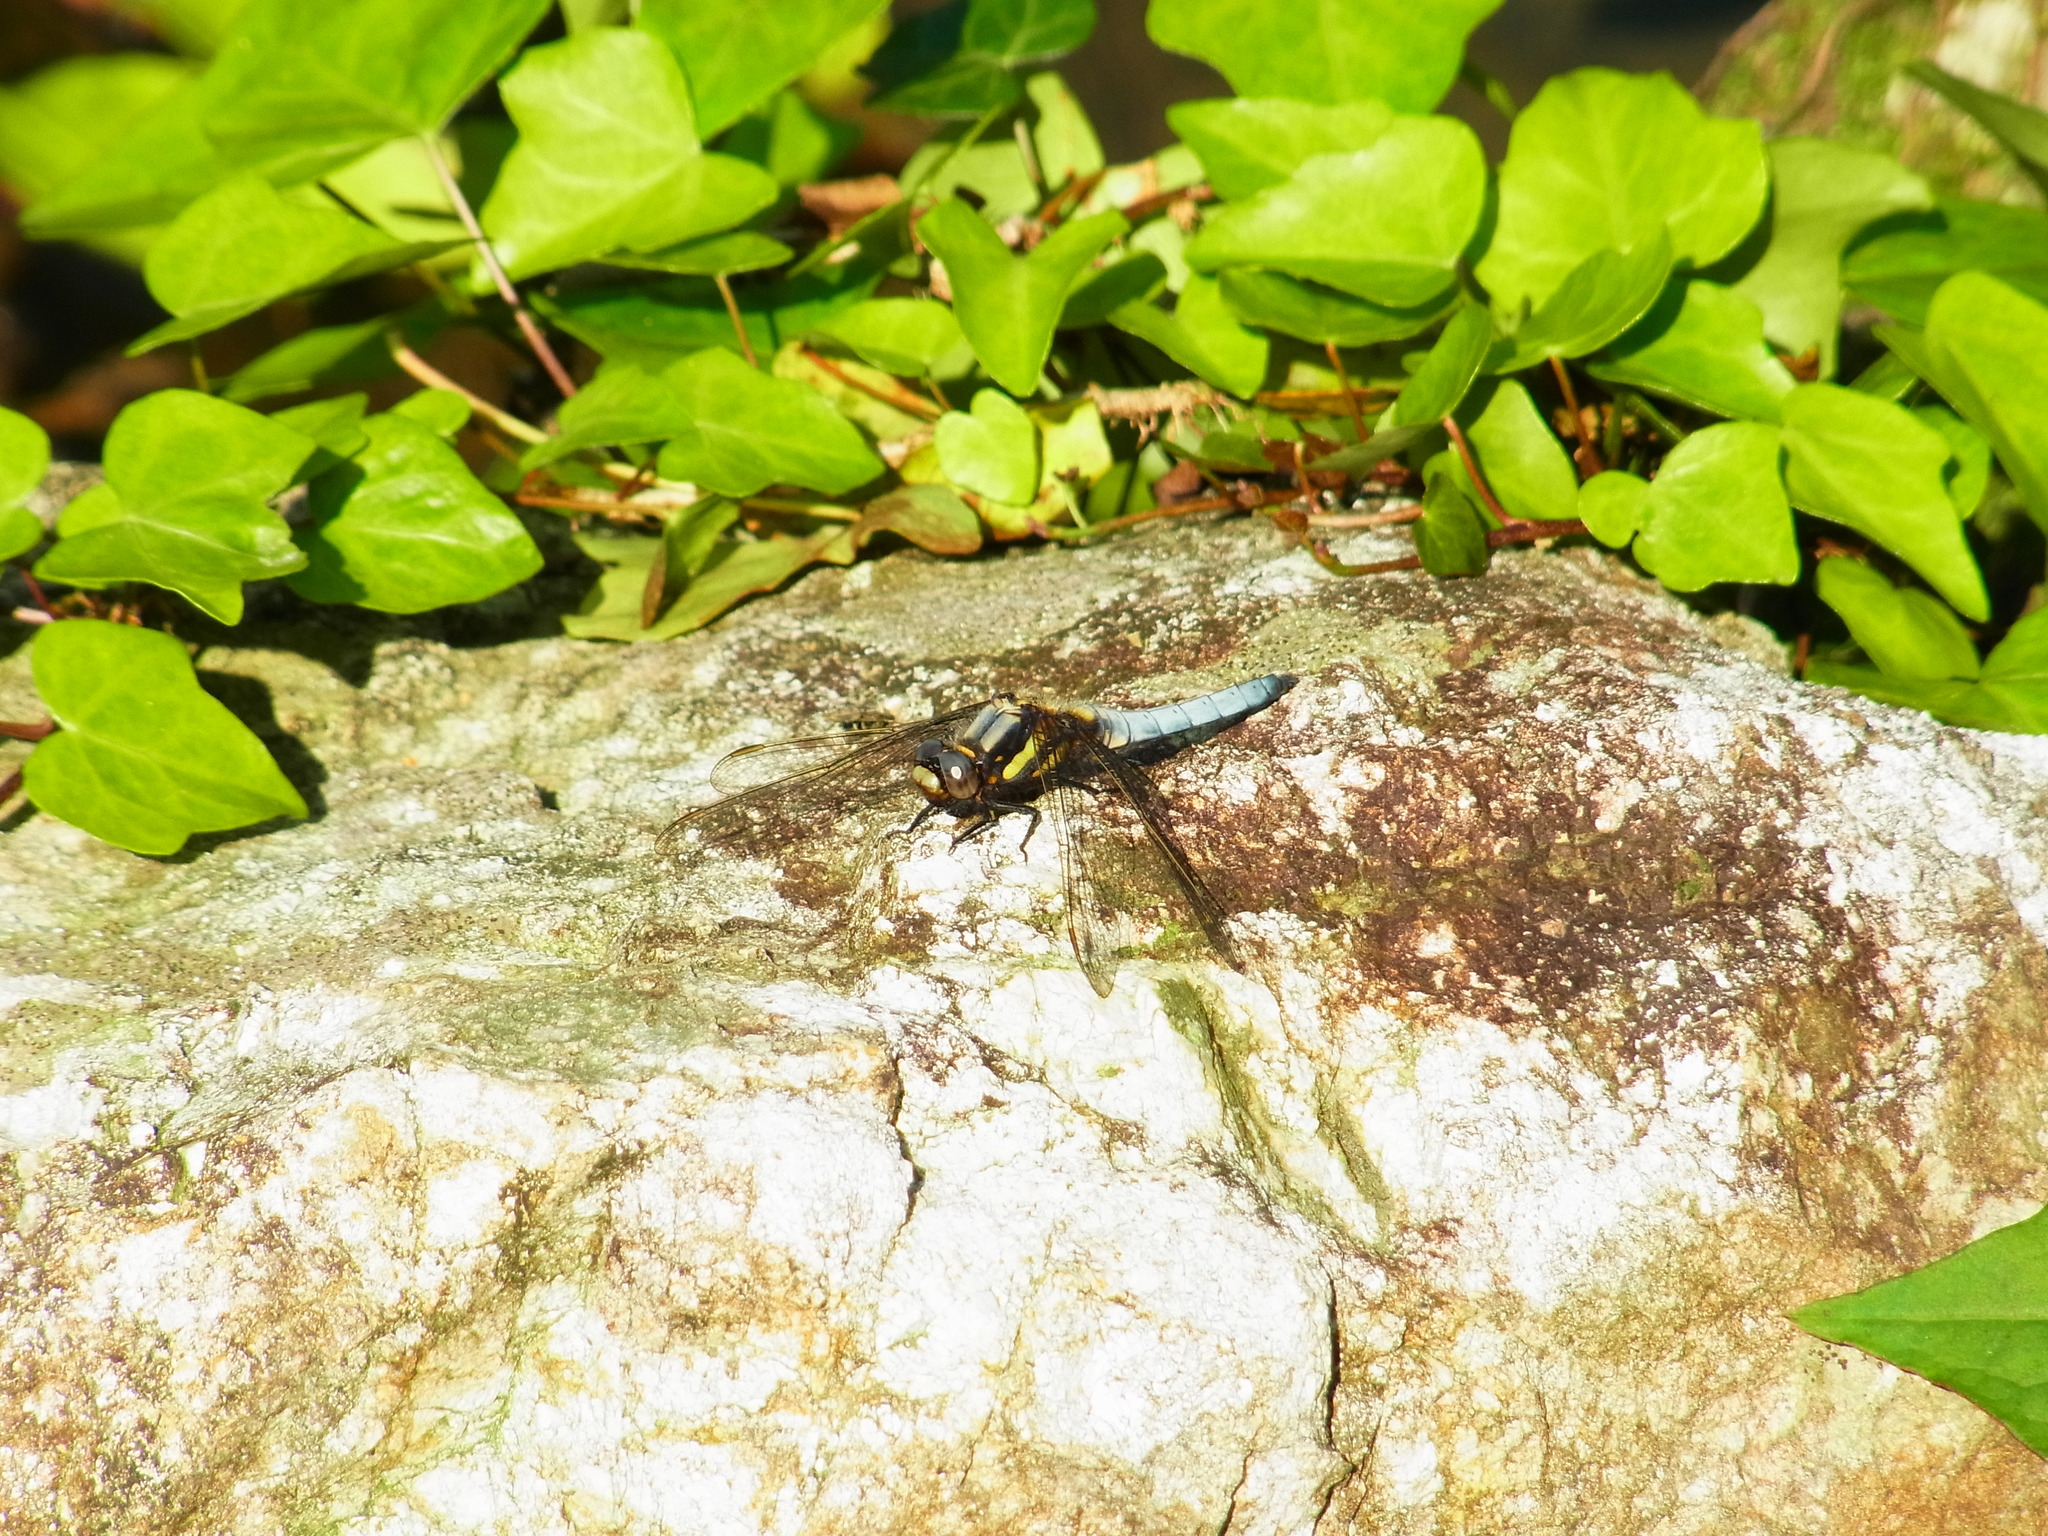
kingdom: Animalia
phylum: Arthropoda
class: Insecta
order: Odonata
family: Libellulidae
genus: Orthetrum
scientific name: Orthetrum japonicum
